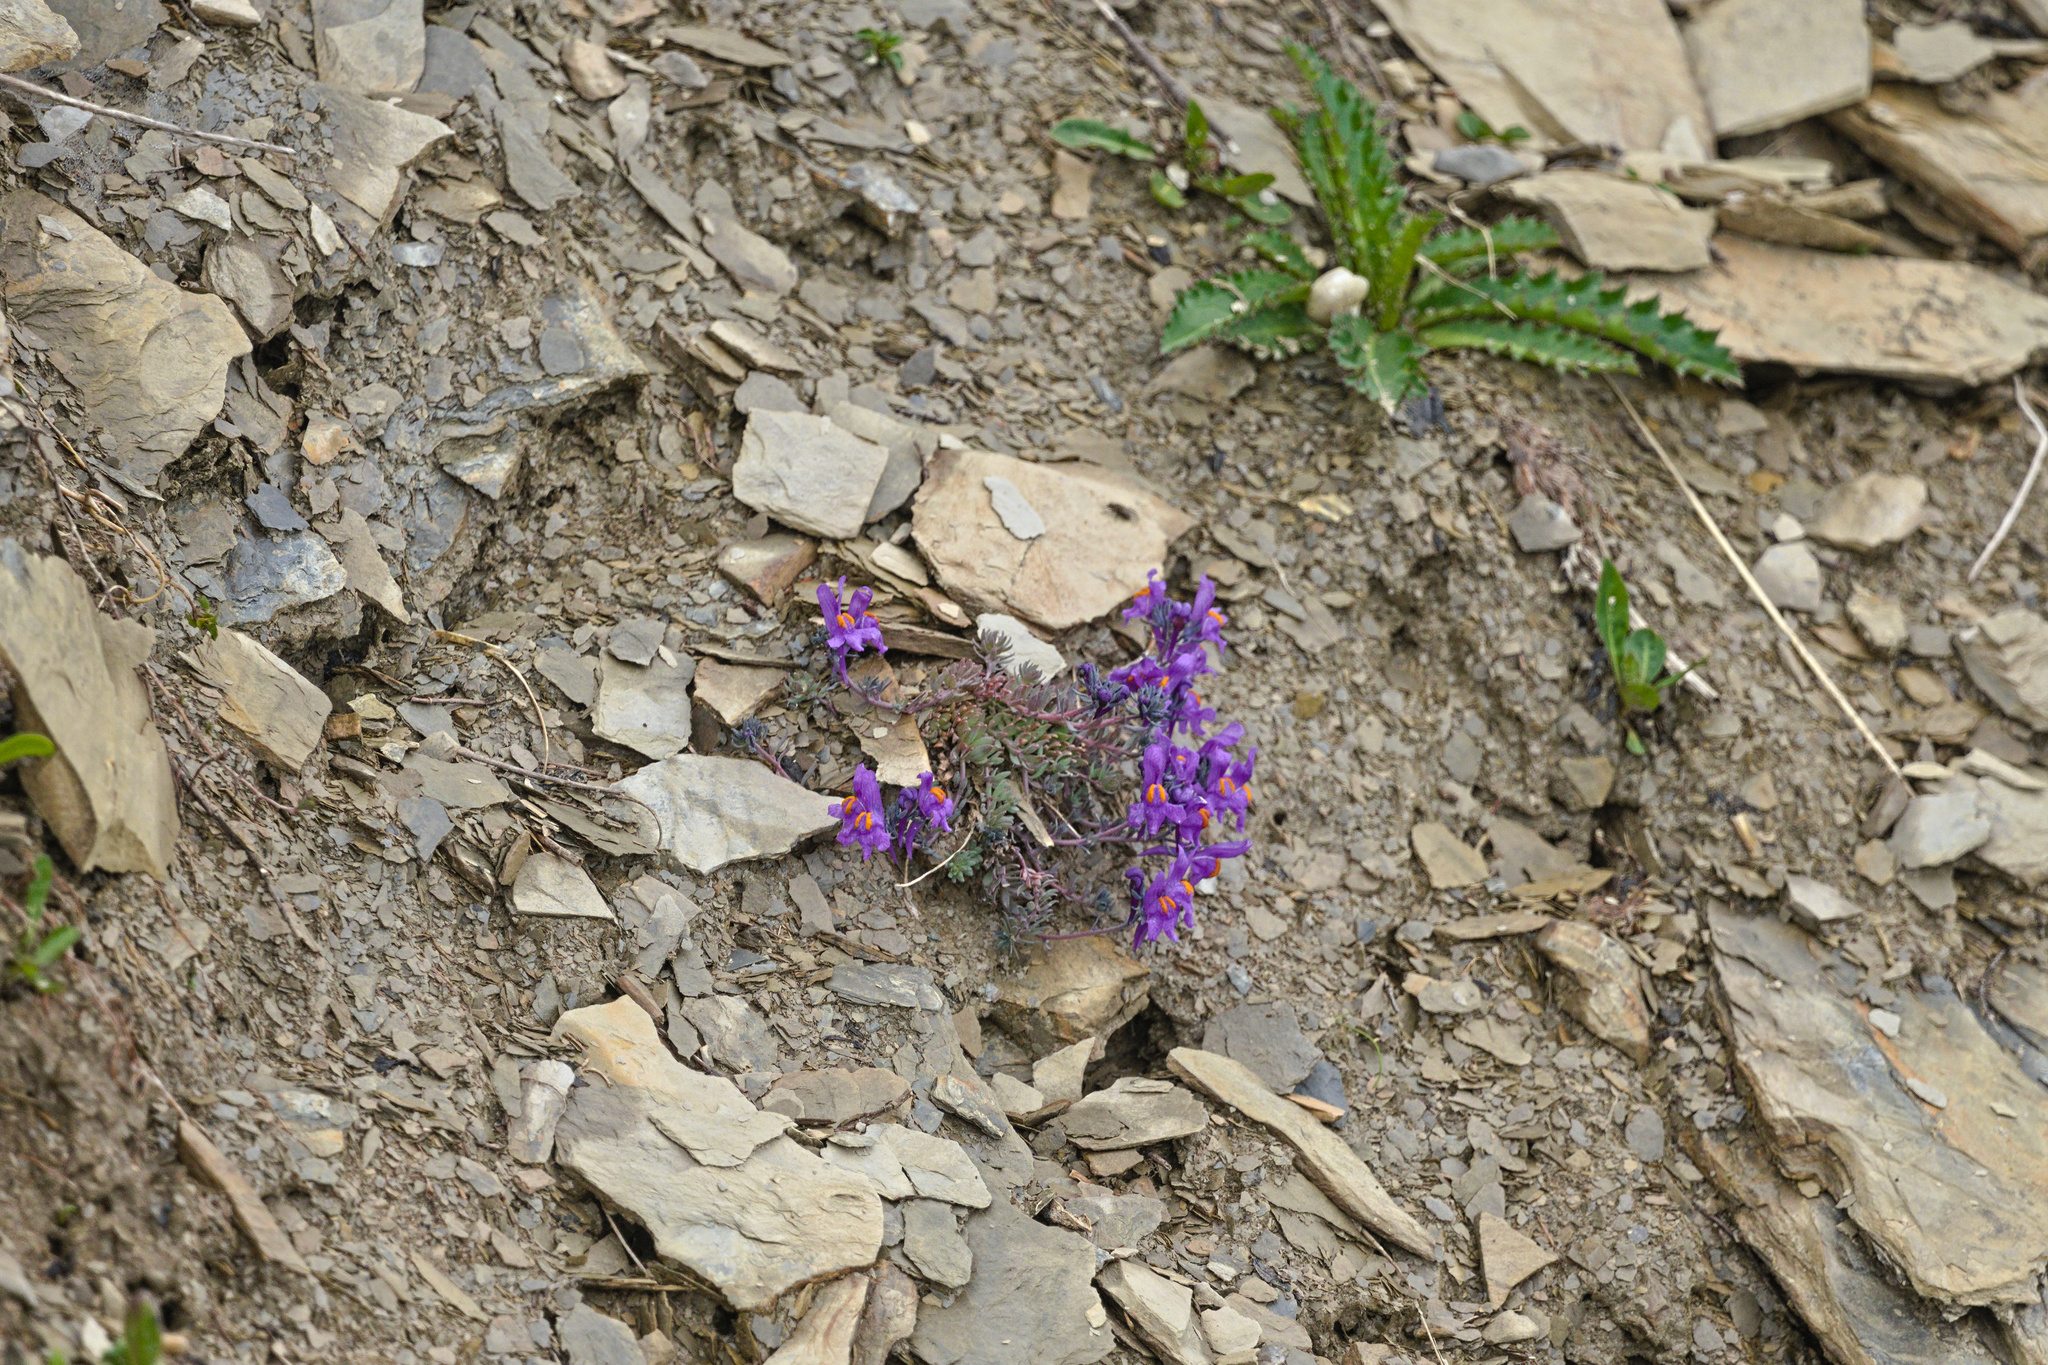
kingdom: Plantae
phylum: Tracheophyta
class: Magnoliopsida
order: Lamiales
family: Plantaginaceae
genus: Linaria
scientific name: Linaria alpina
